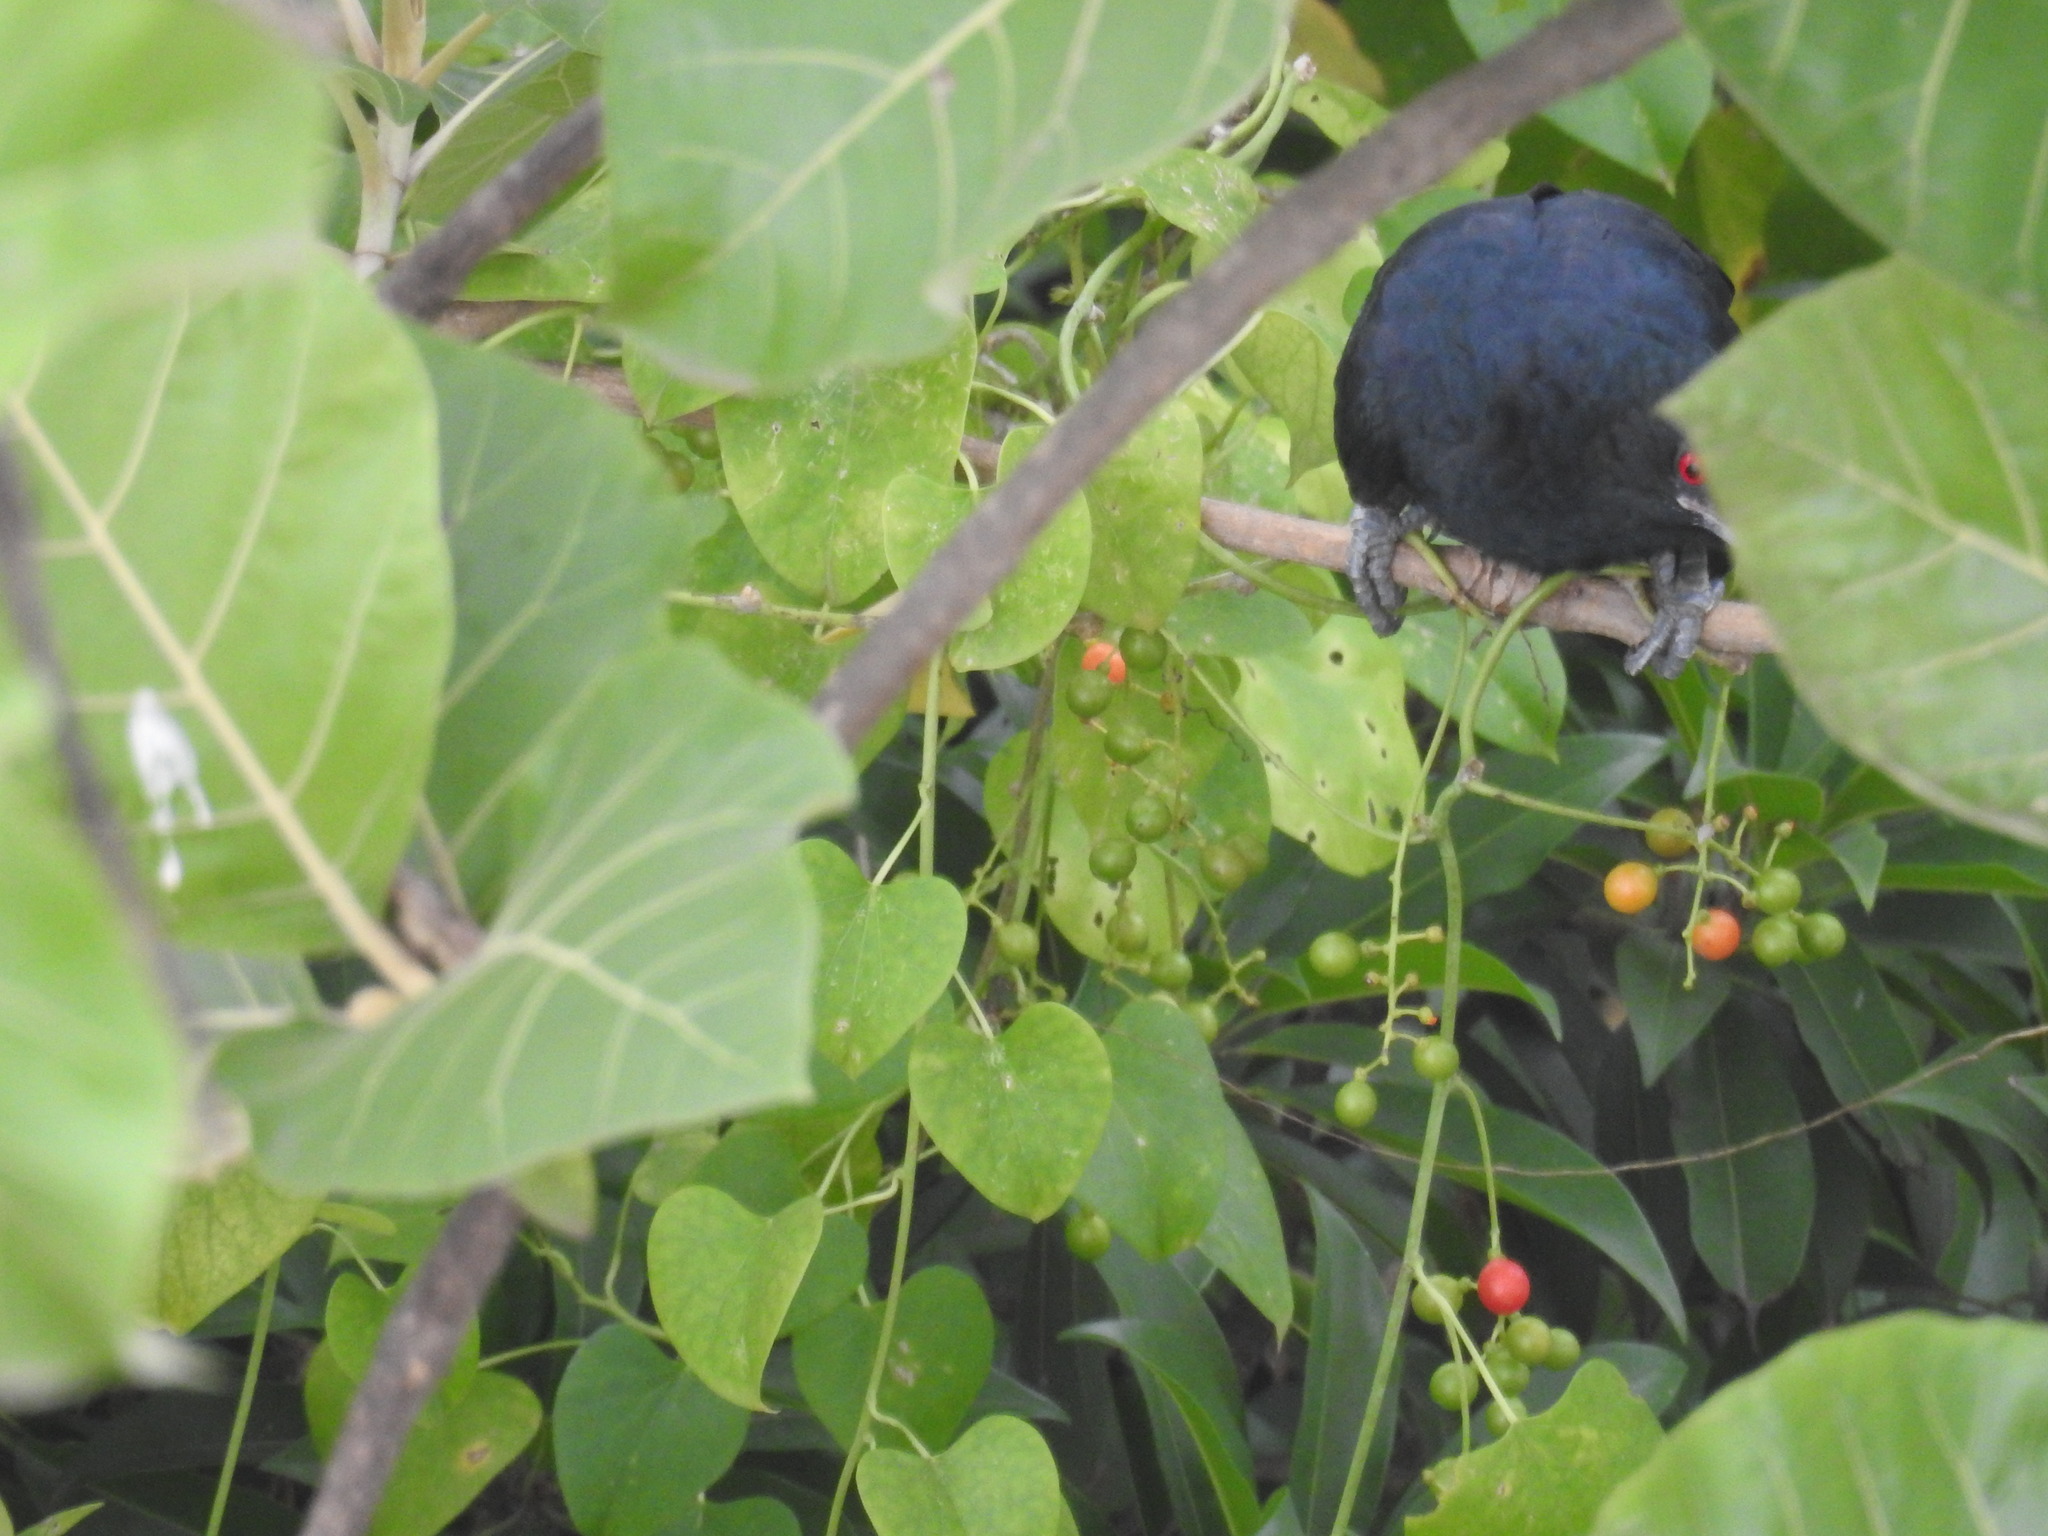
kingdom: Animalia
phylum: Chordata
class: Aves
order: Cuculiformes
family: Cuculidae
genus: Eudynamys
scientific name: Eudynamys scolopaceus
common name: Asian koel
